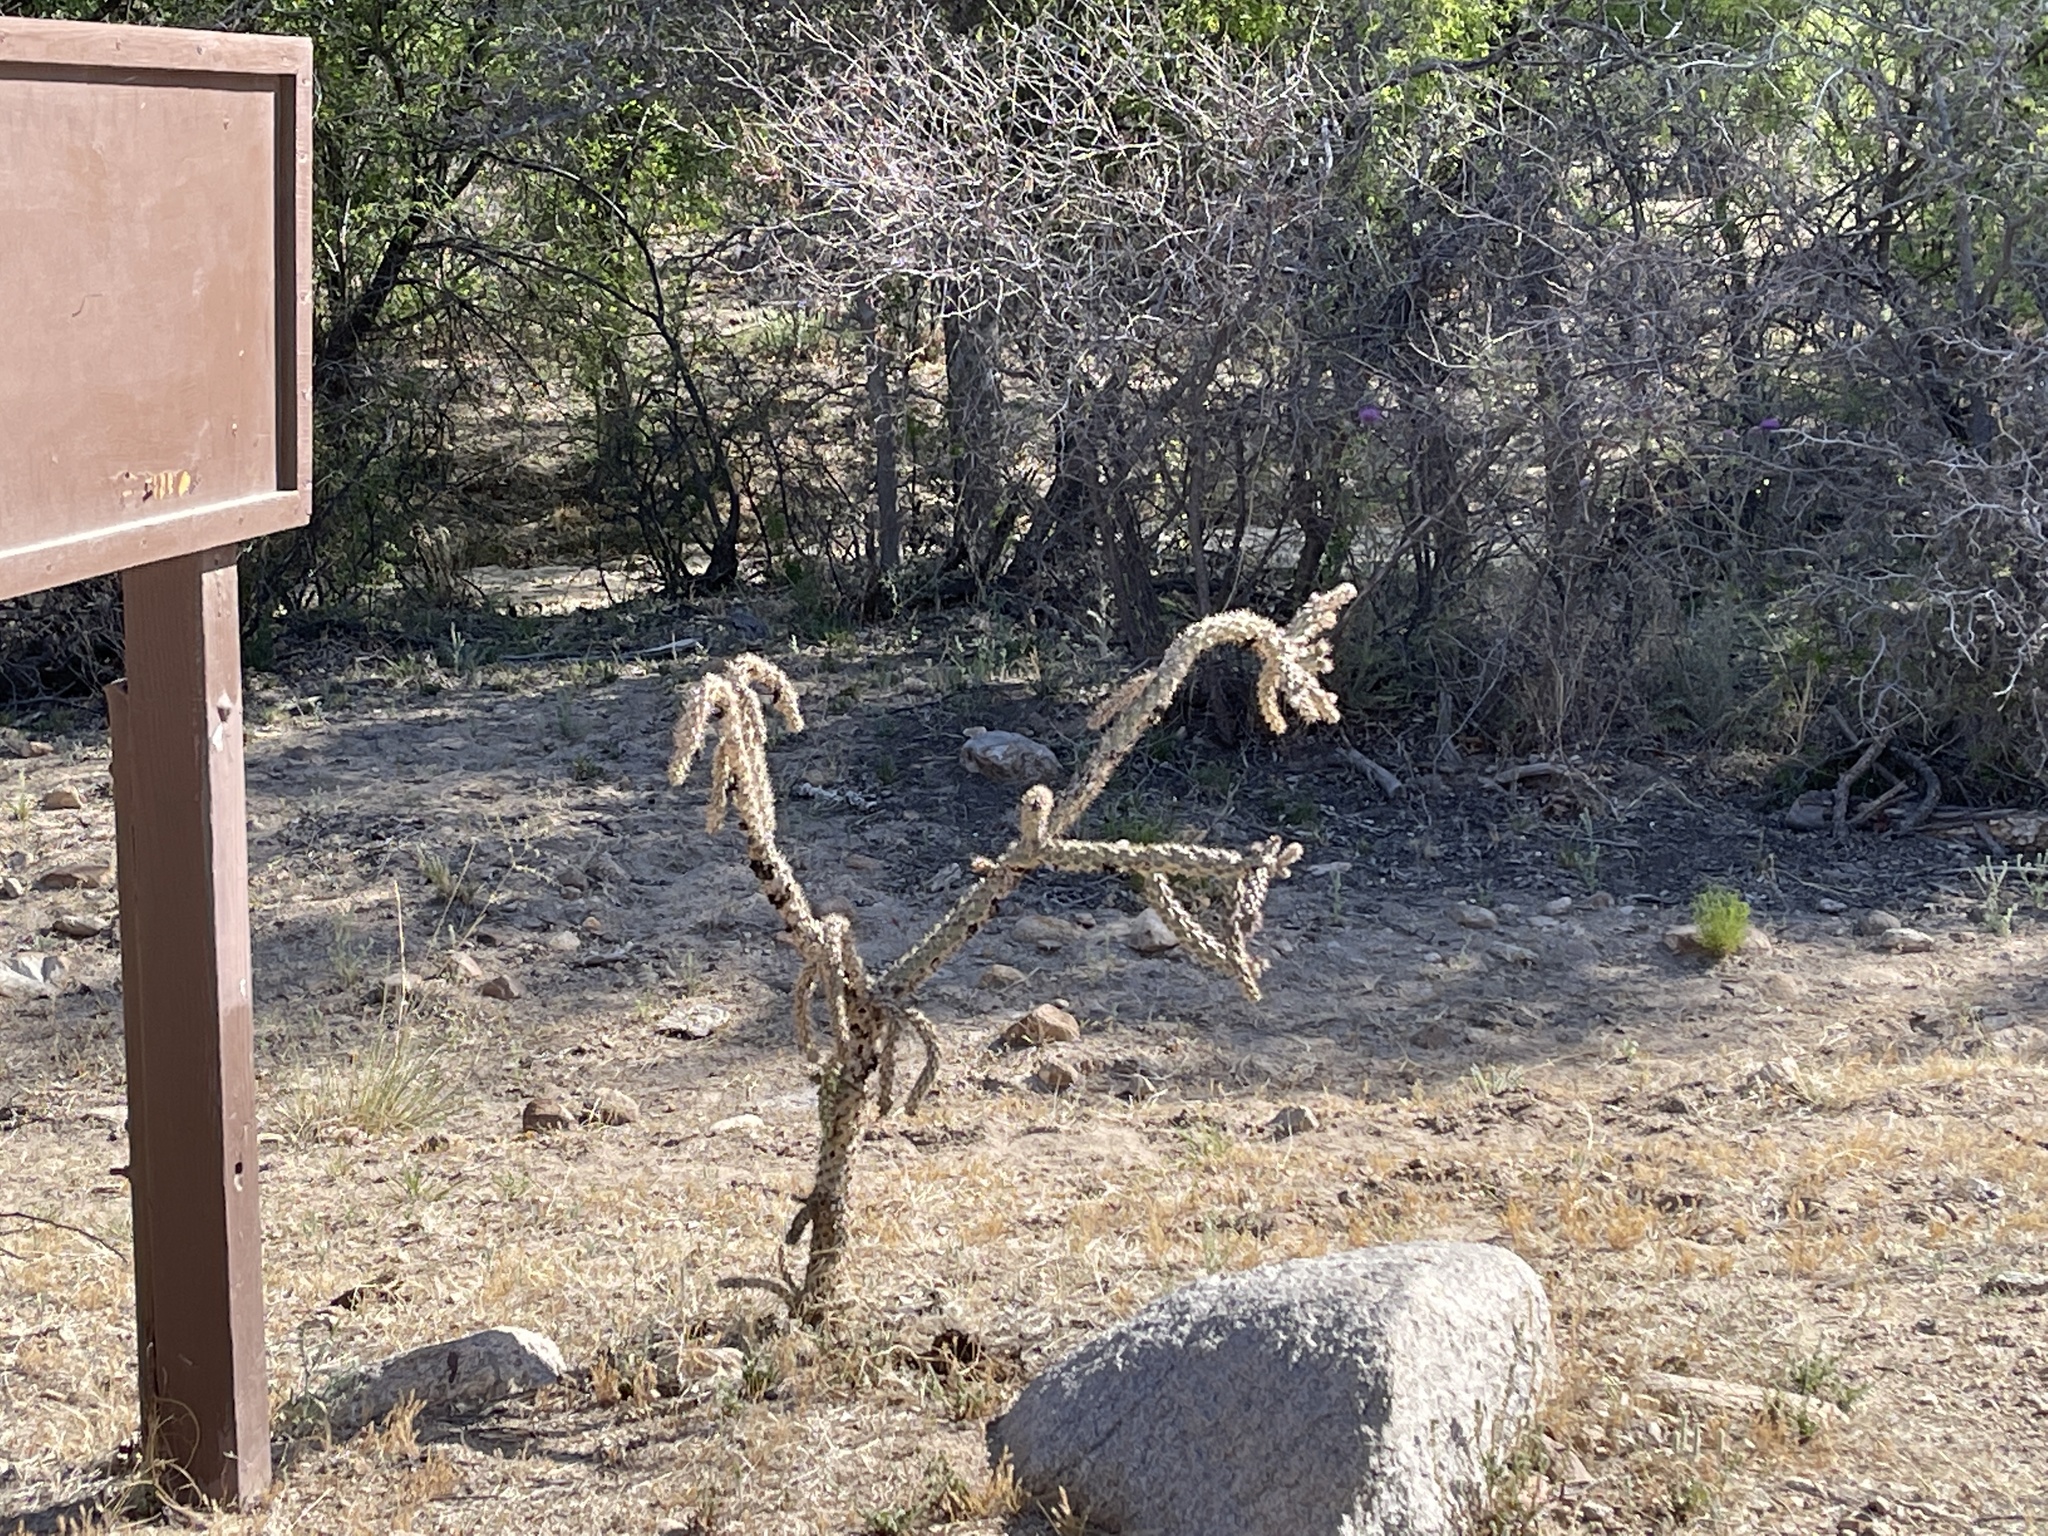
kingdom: Plantae
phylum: Tracheophyta
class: Magnoliopsida
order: Caryophyllales
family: Cactaceae
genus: Cylindropuntia
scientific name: Cylindropuntia imbricata
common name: Candelabrum cactus
